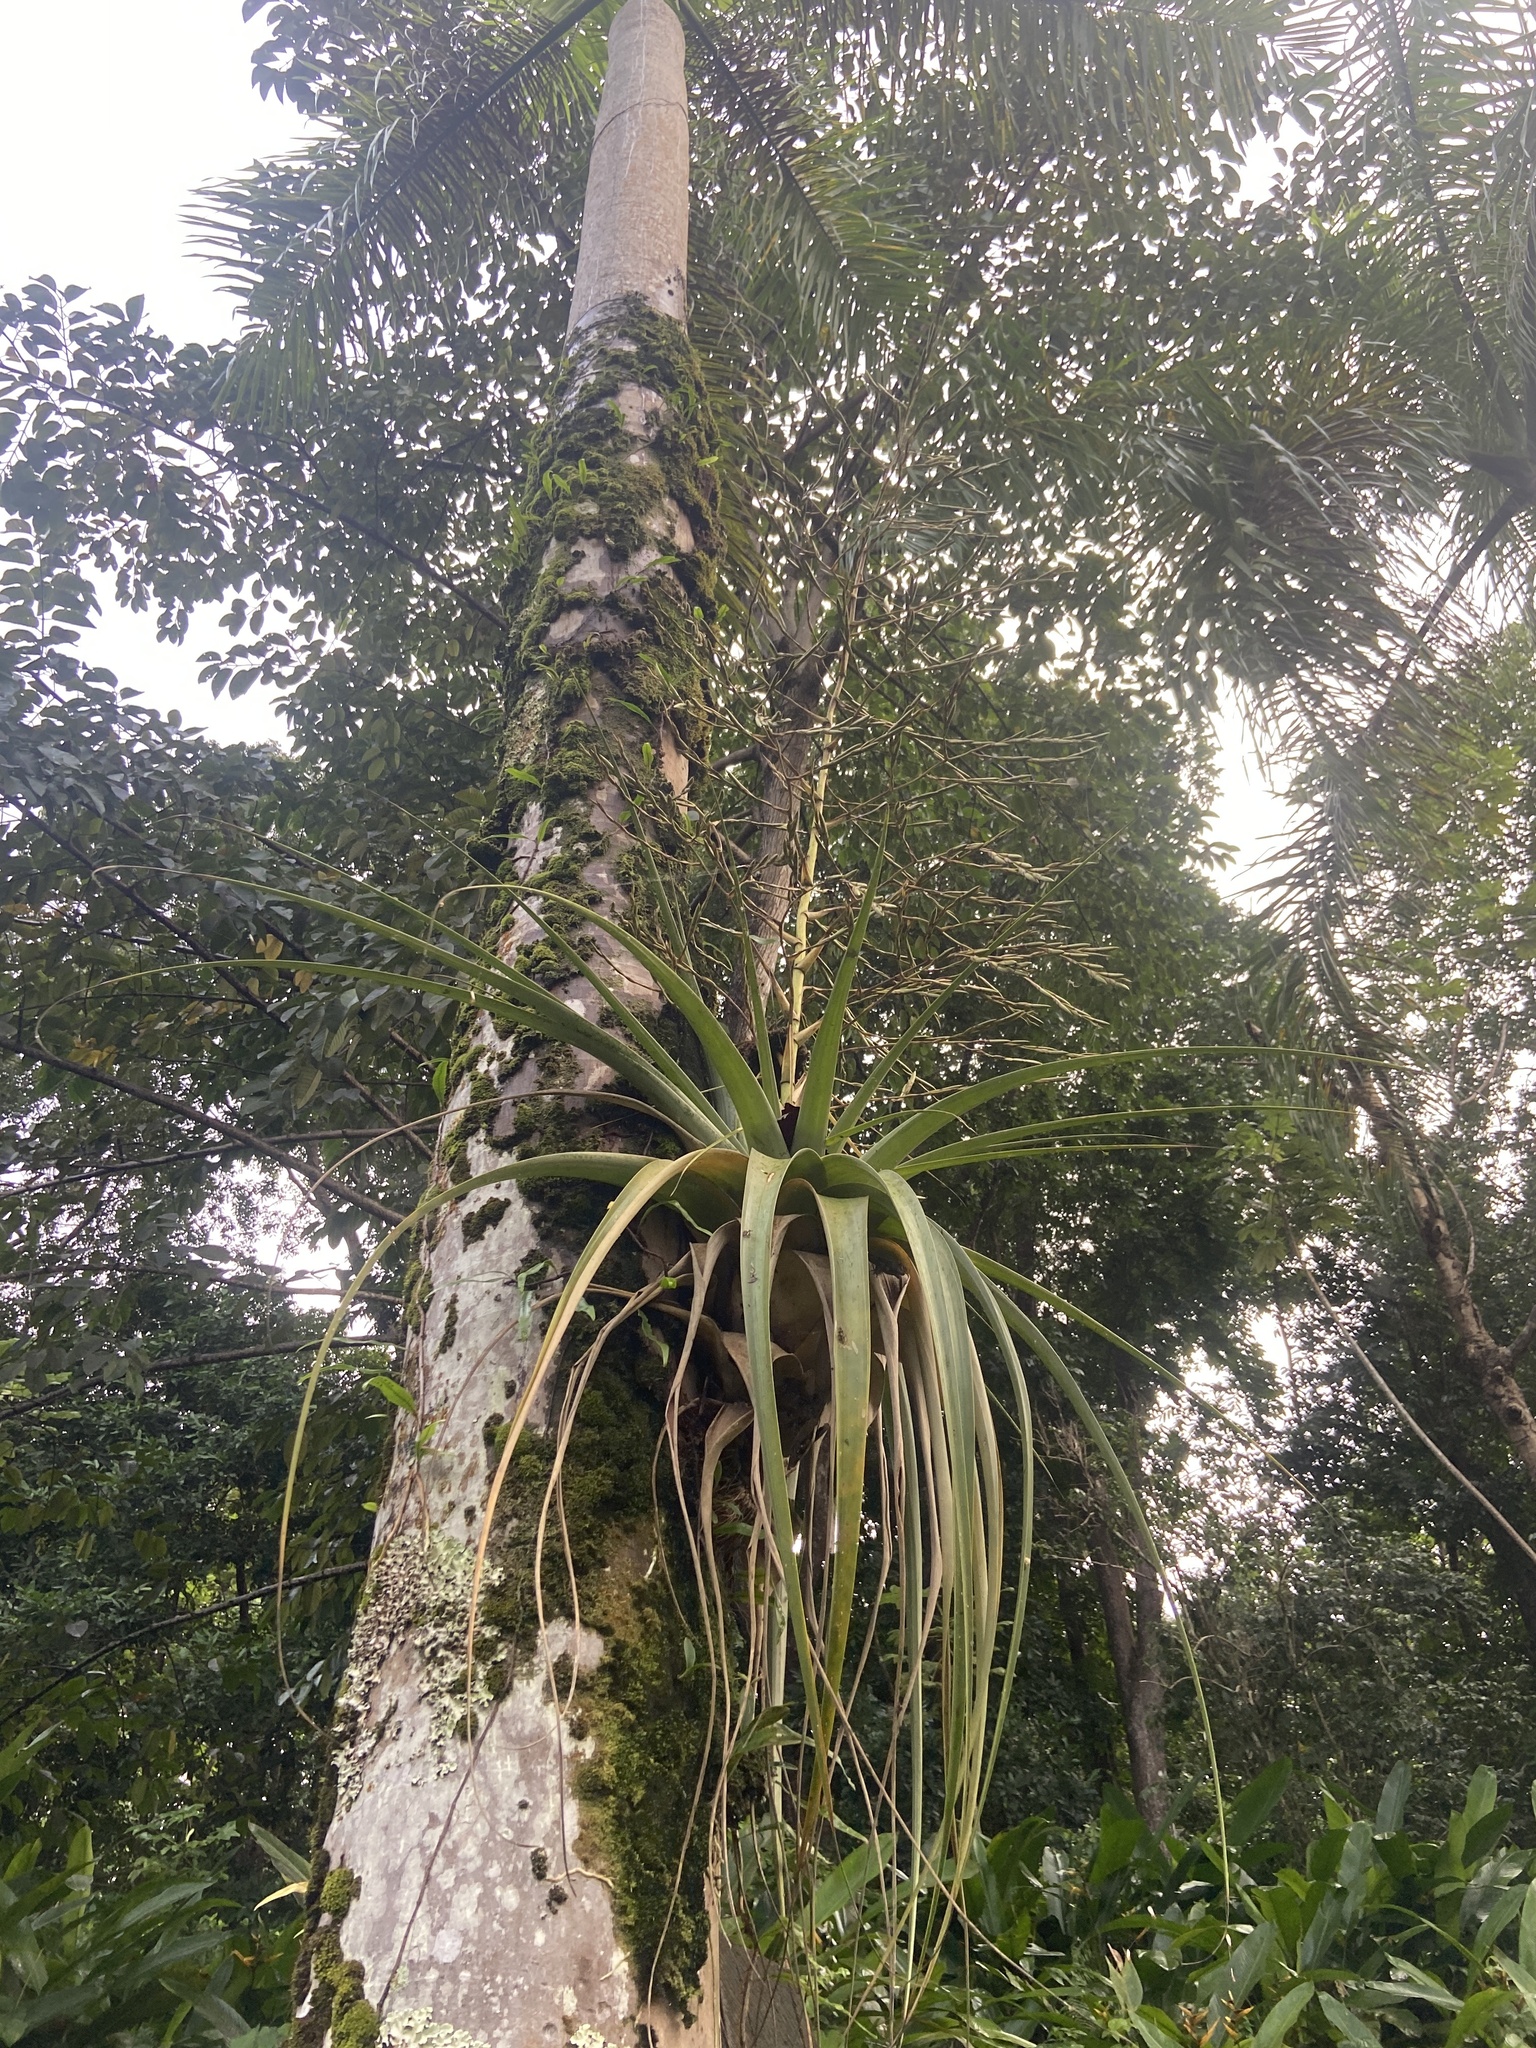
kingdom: Plantae
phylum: Tracheophyta
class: Liliopsida
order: Poales
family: Bromeliaceae
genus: Tillandsia
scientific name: Tillandsia utriculata
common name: Wild pine
